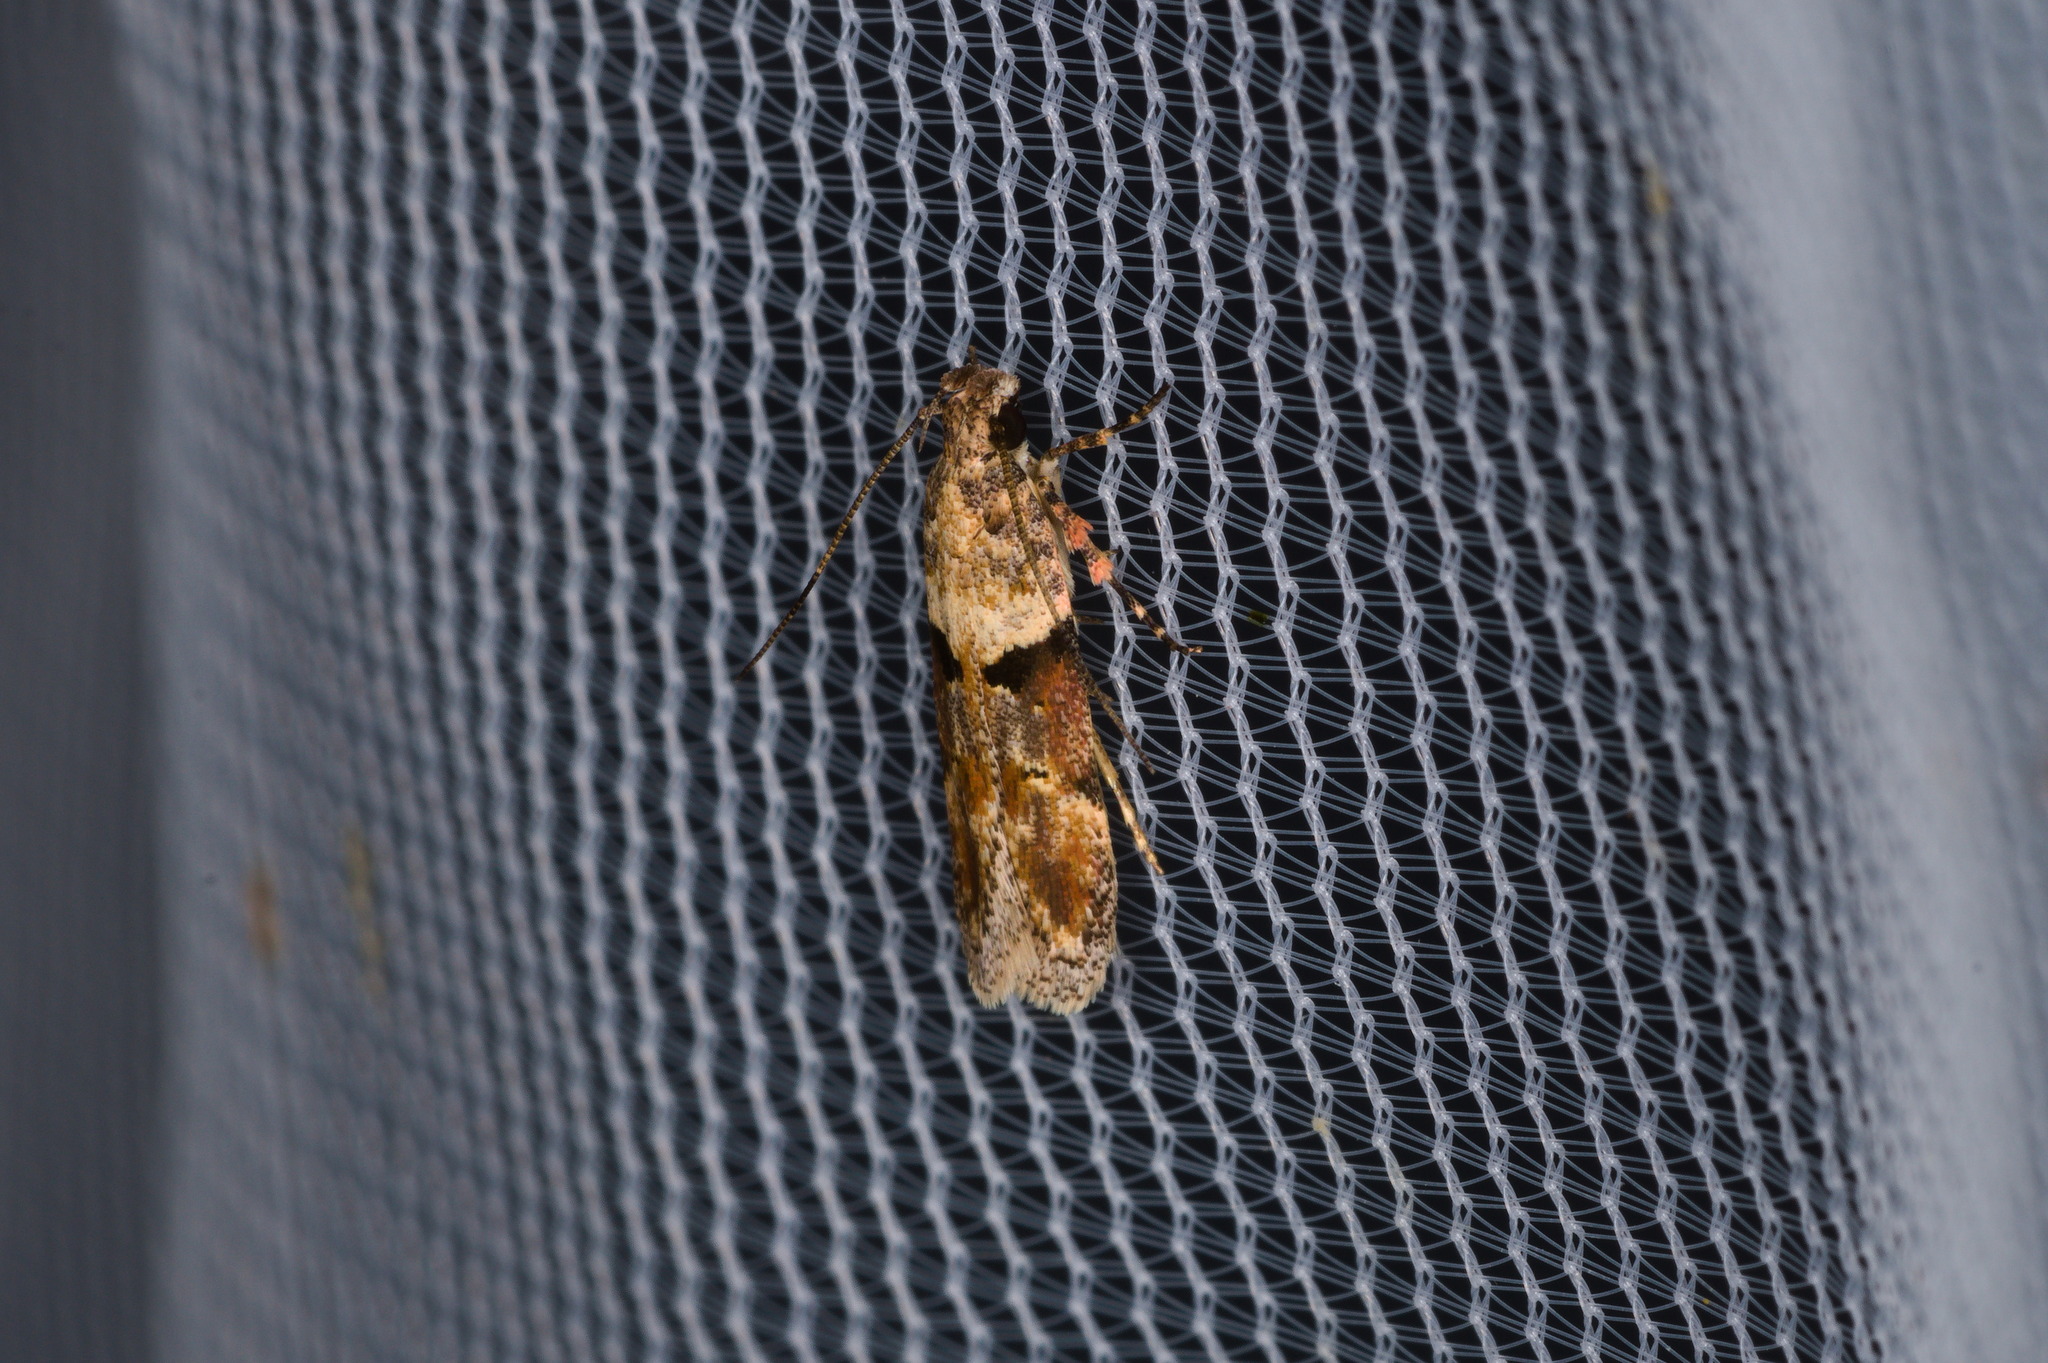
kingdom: Animalia
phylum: Arthropoda
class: Insecta
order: Lepidoptera
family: Gelechiidae
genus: Faculta
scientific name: Faculta inaequalis
